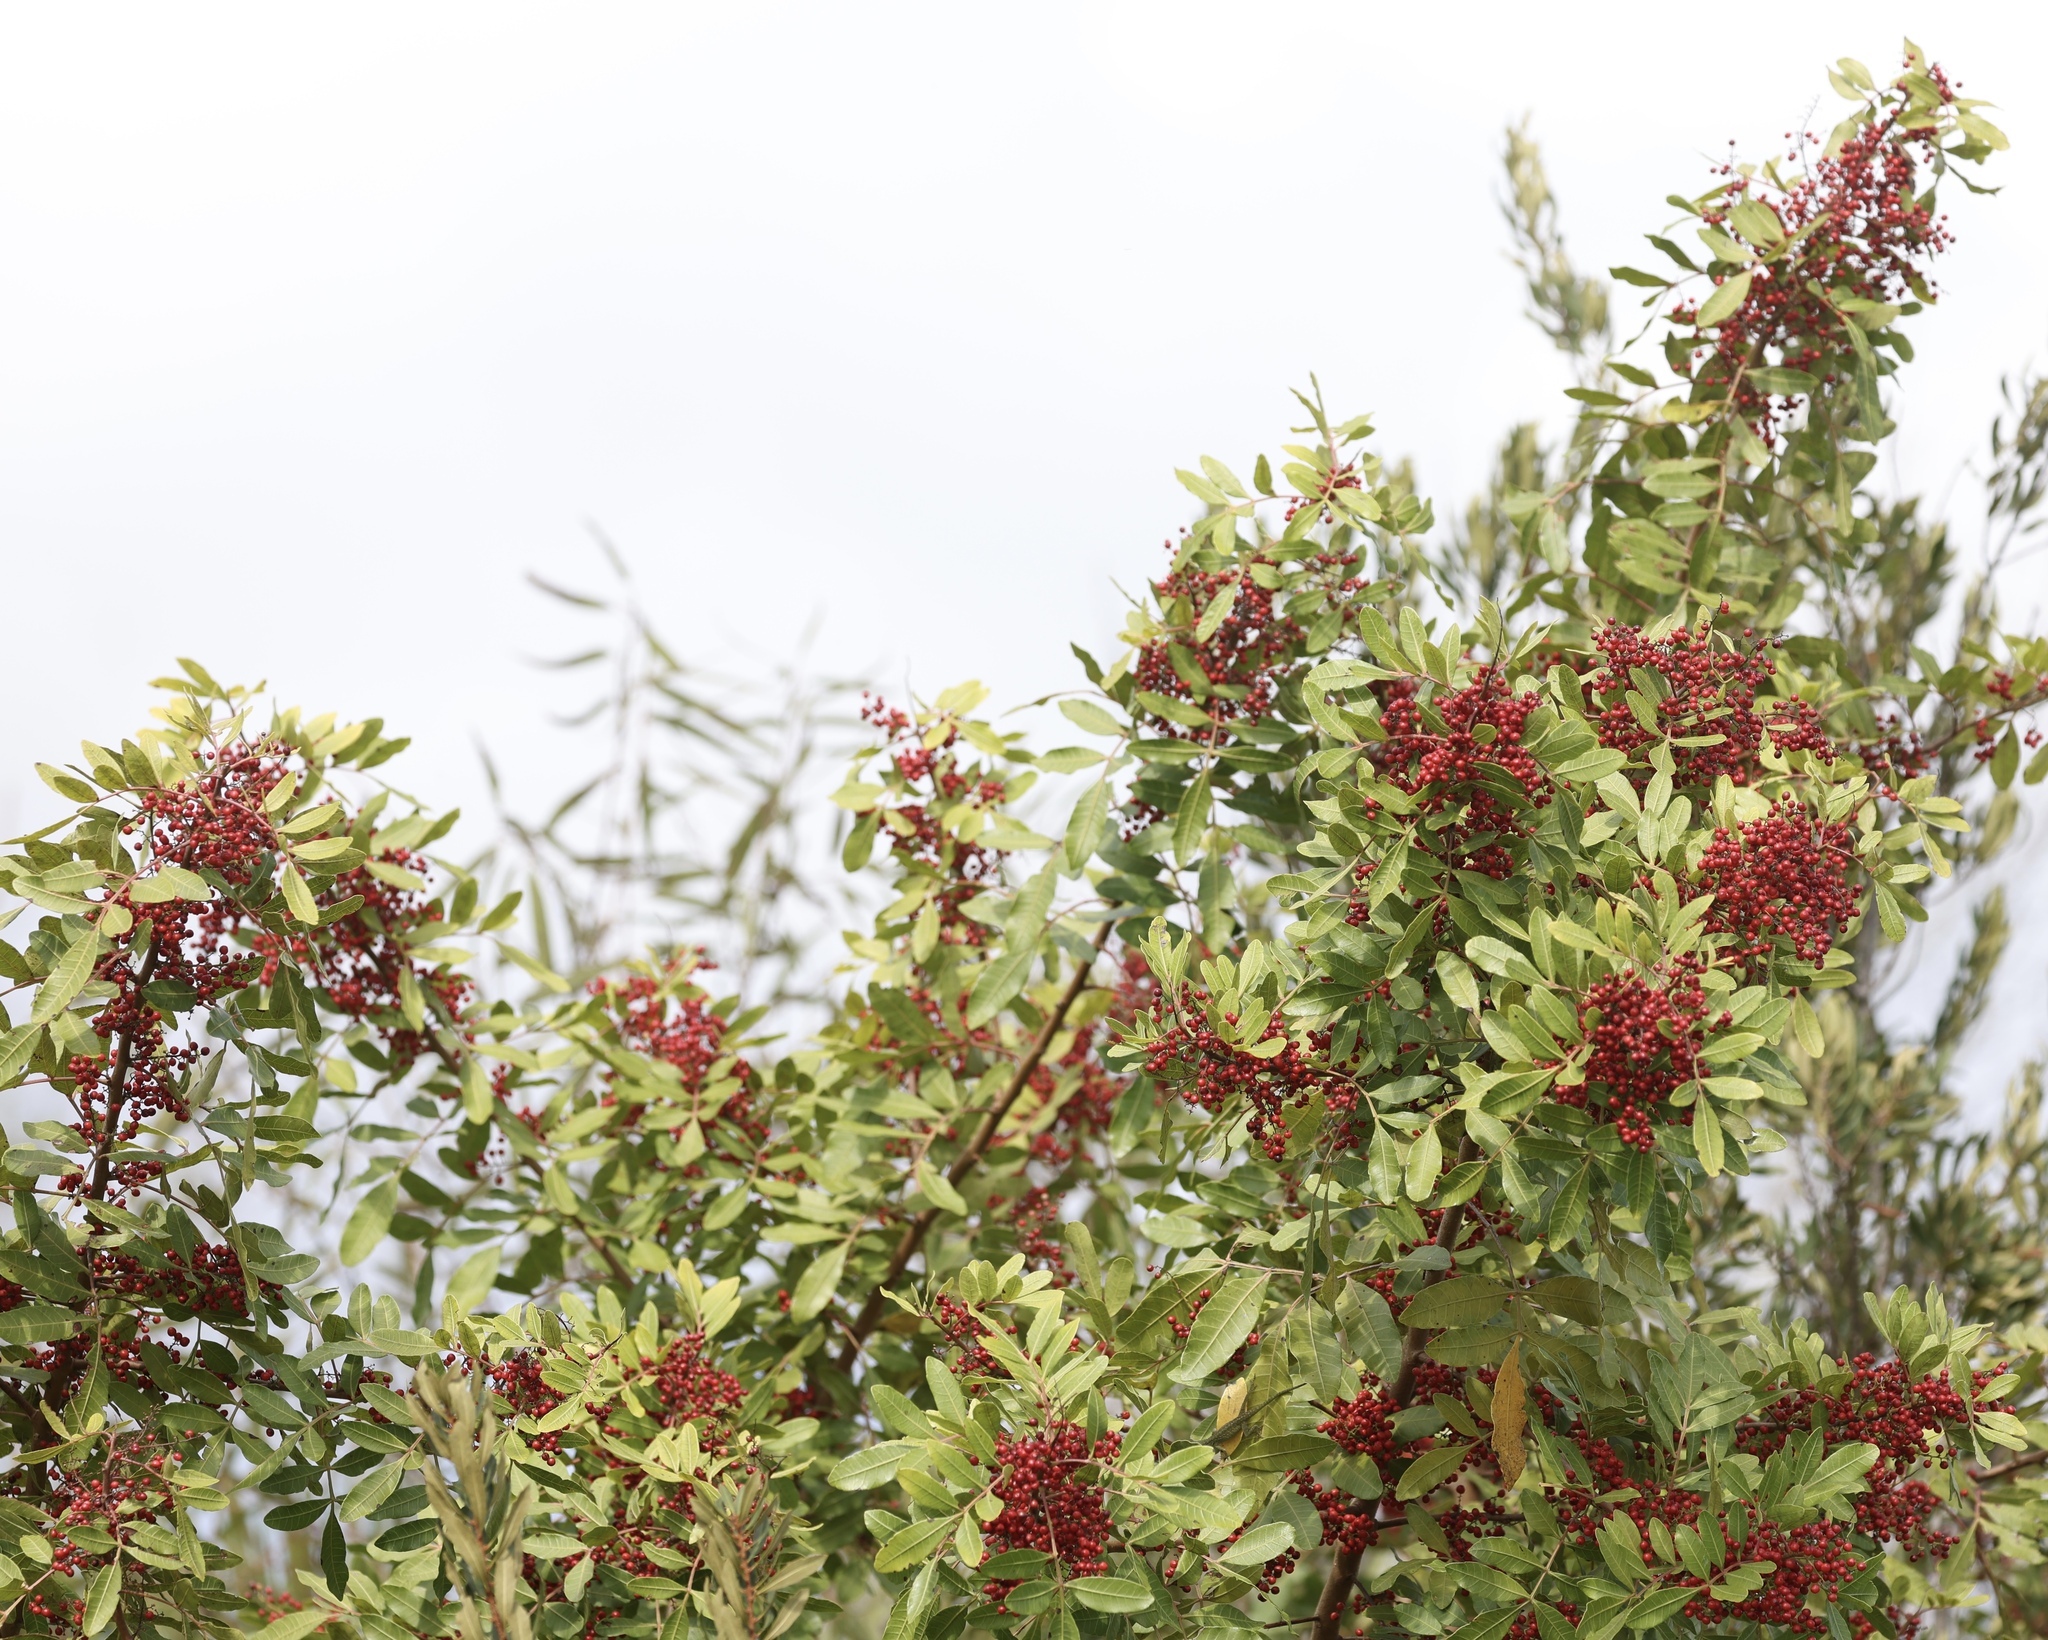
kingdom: Plantae
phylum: Tracheophyta
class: Magnoliopsida
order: Sapindales
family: Anacardiaceae
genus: Schinus
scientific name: Schinus terebinthifolia
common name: Brazilian peppertree
